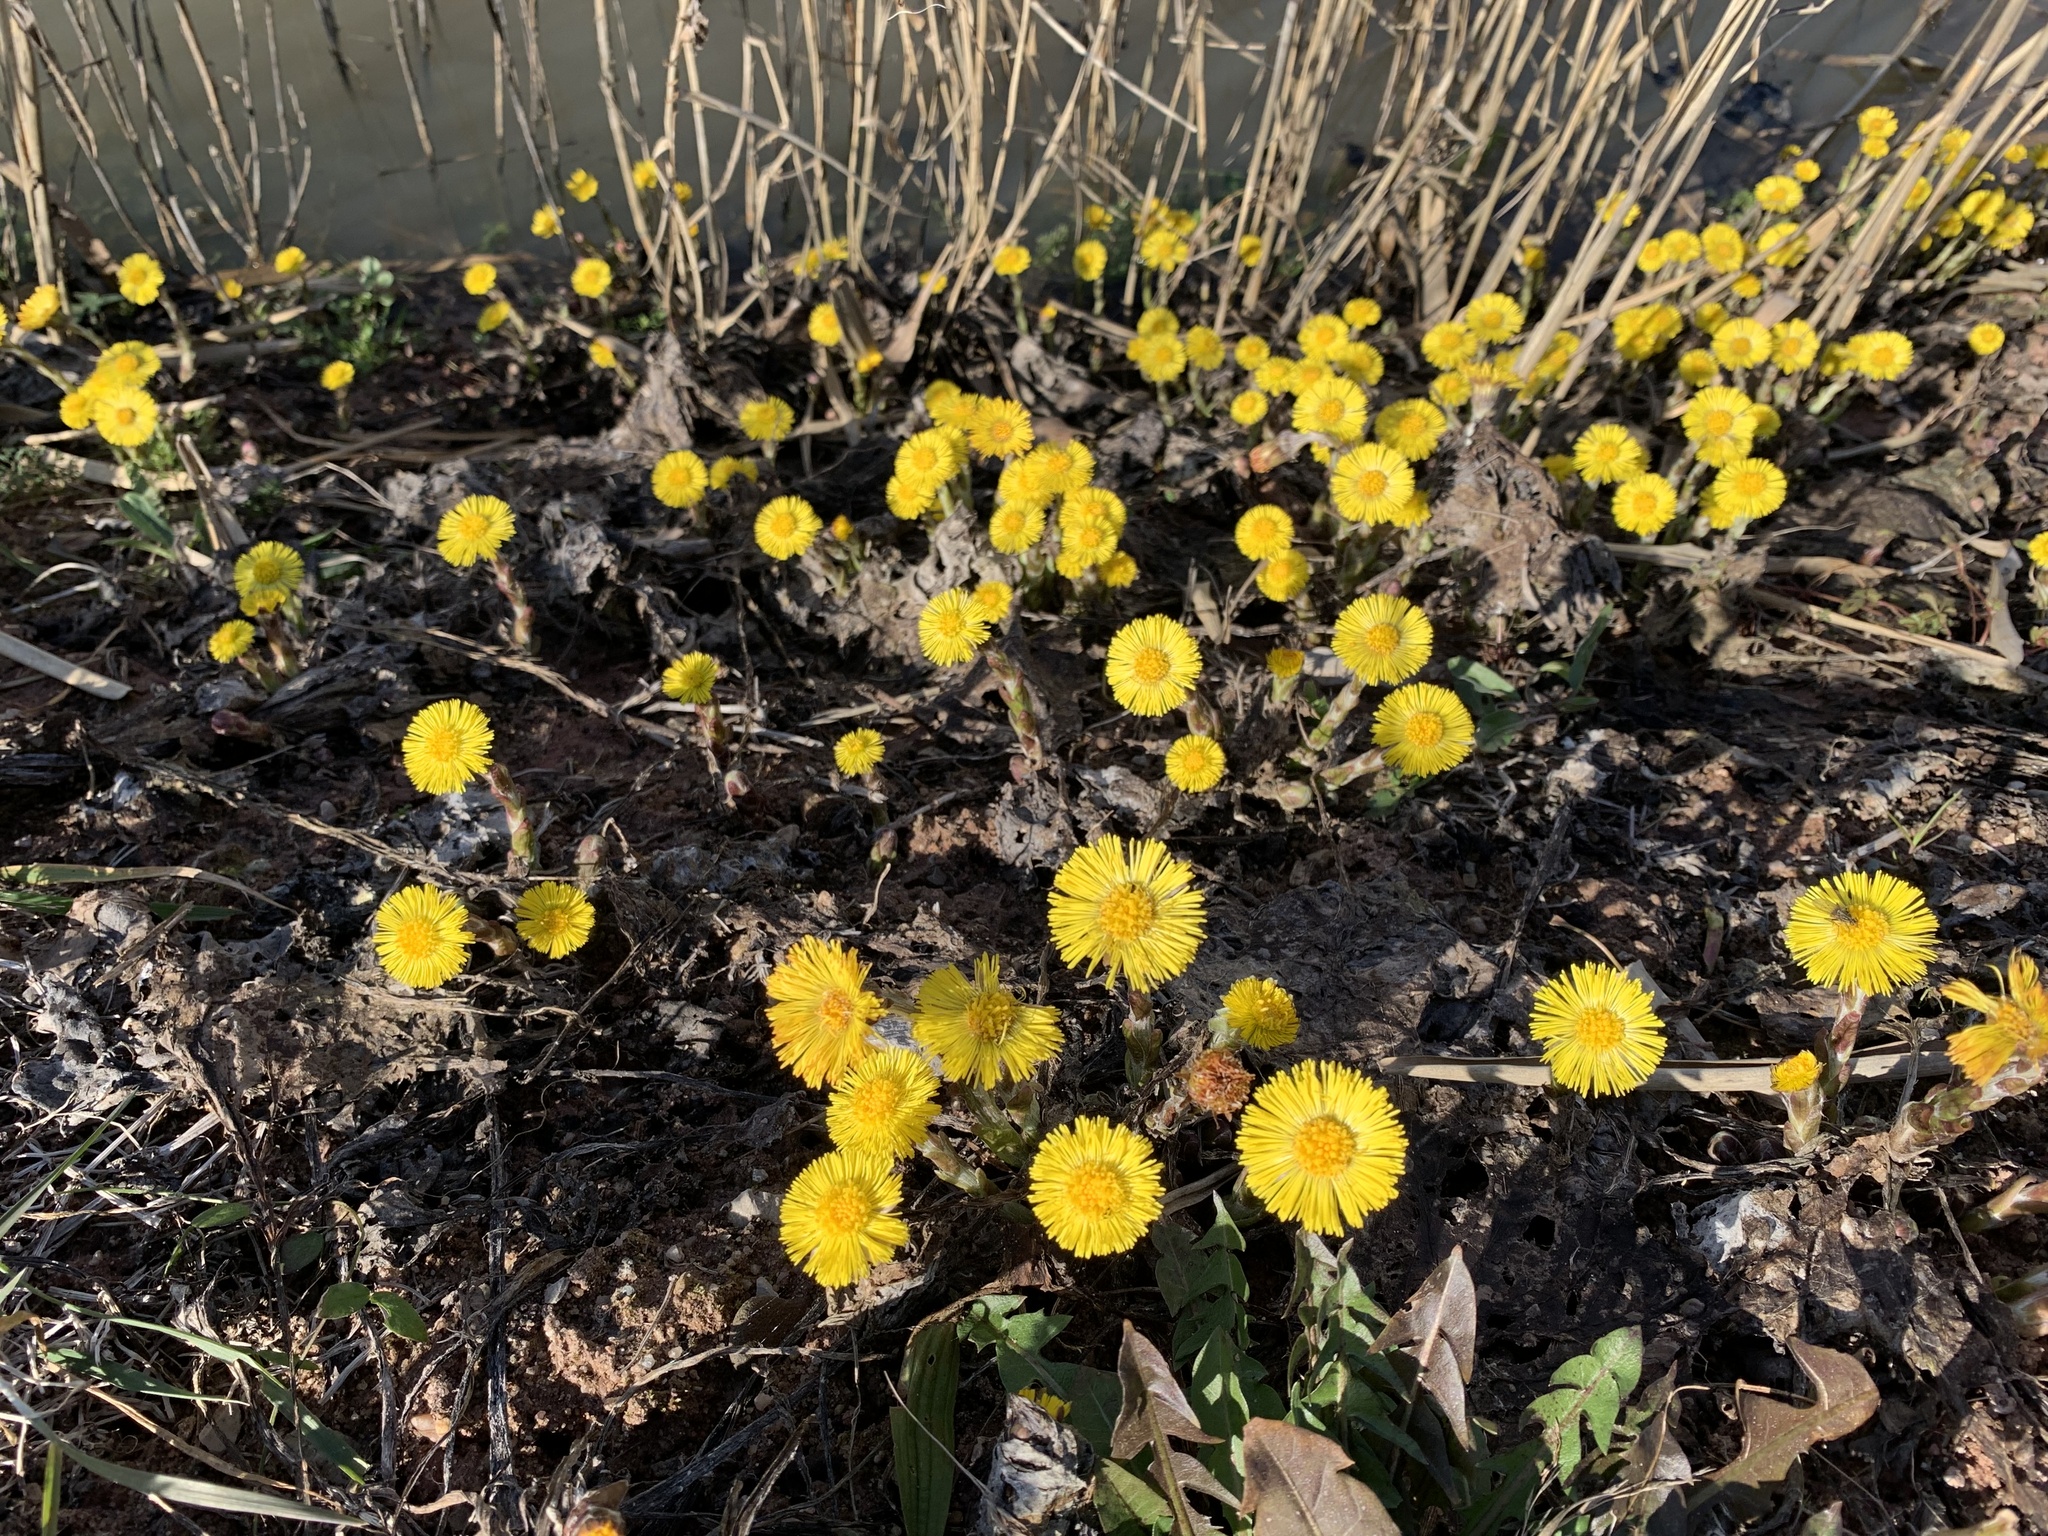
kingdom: Plantae
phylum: Tracheophyta
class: Magnoliopsida
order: Asterales
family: Asteraceae
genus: Tussilago
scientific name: Tussilago farfara
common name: Coltsfoot
